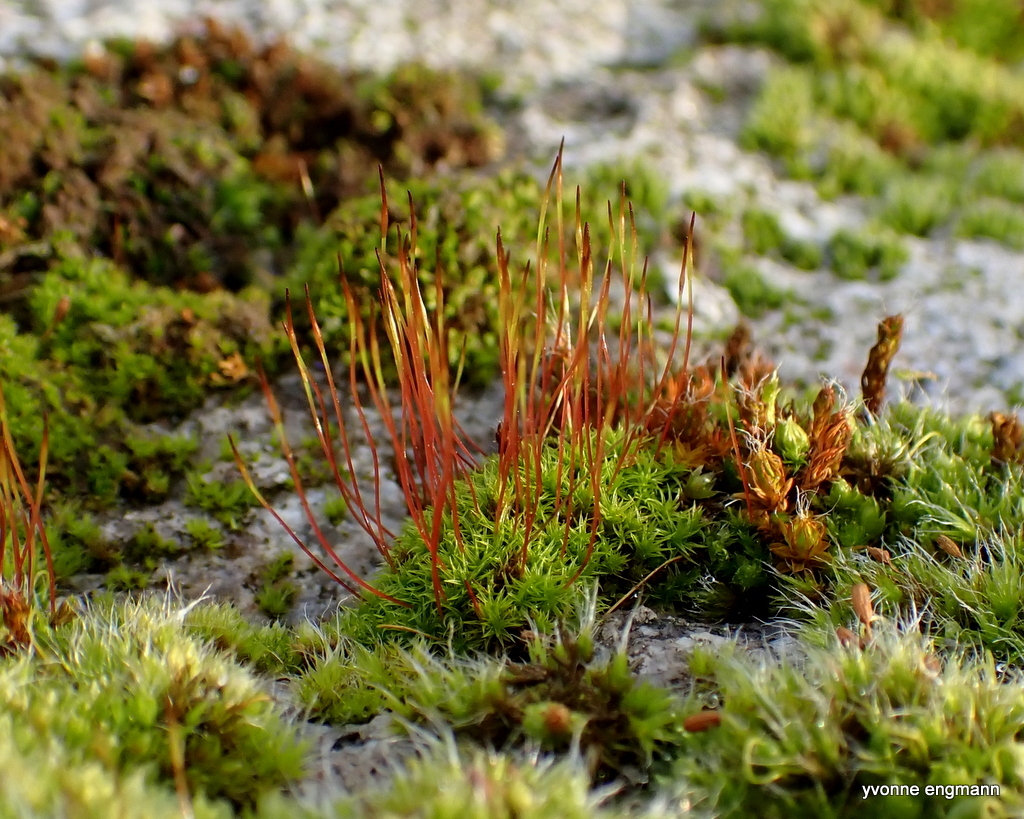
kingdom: Plantae
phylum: Bryophyta
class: Bryopsida
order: Dicranales
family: Ditrichaceae
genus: Ceratodon
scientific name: Ceratodon purpureus
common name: Redshank
